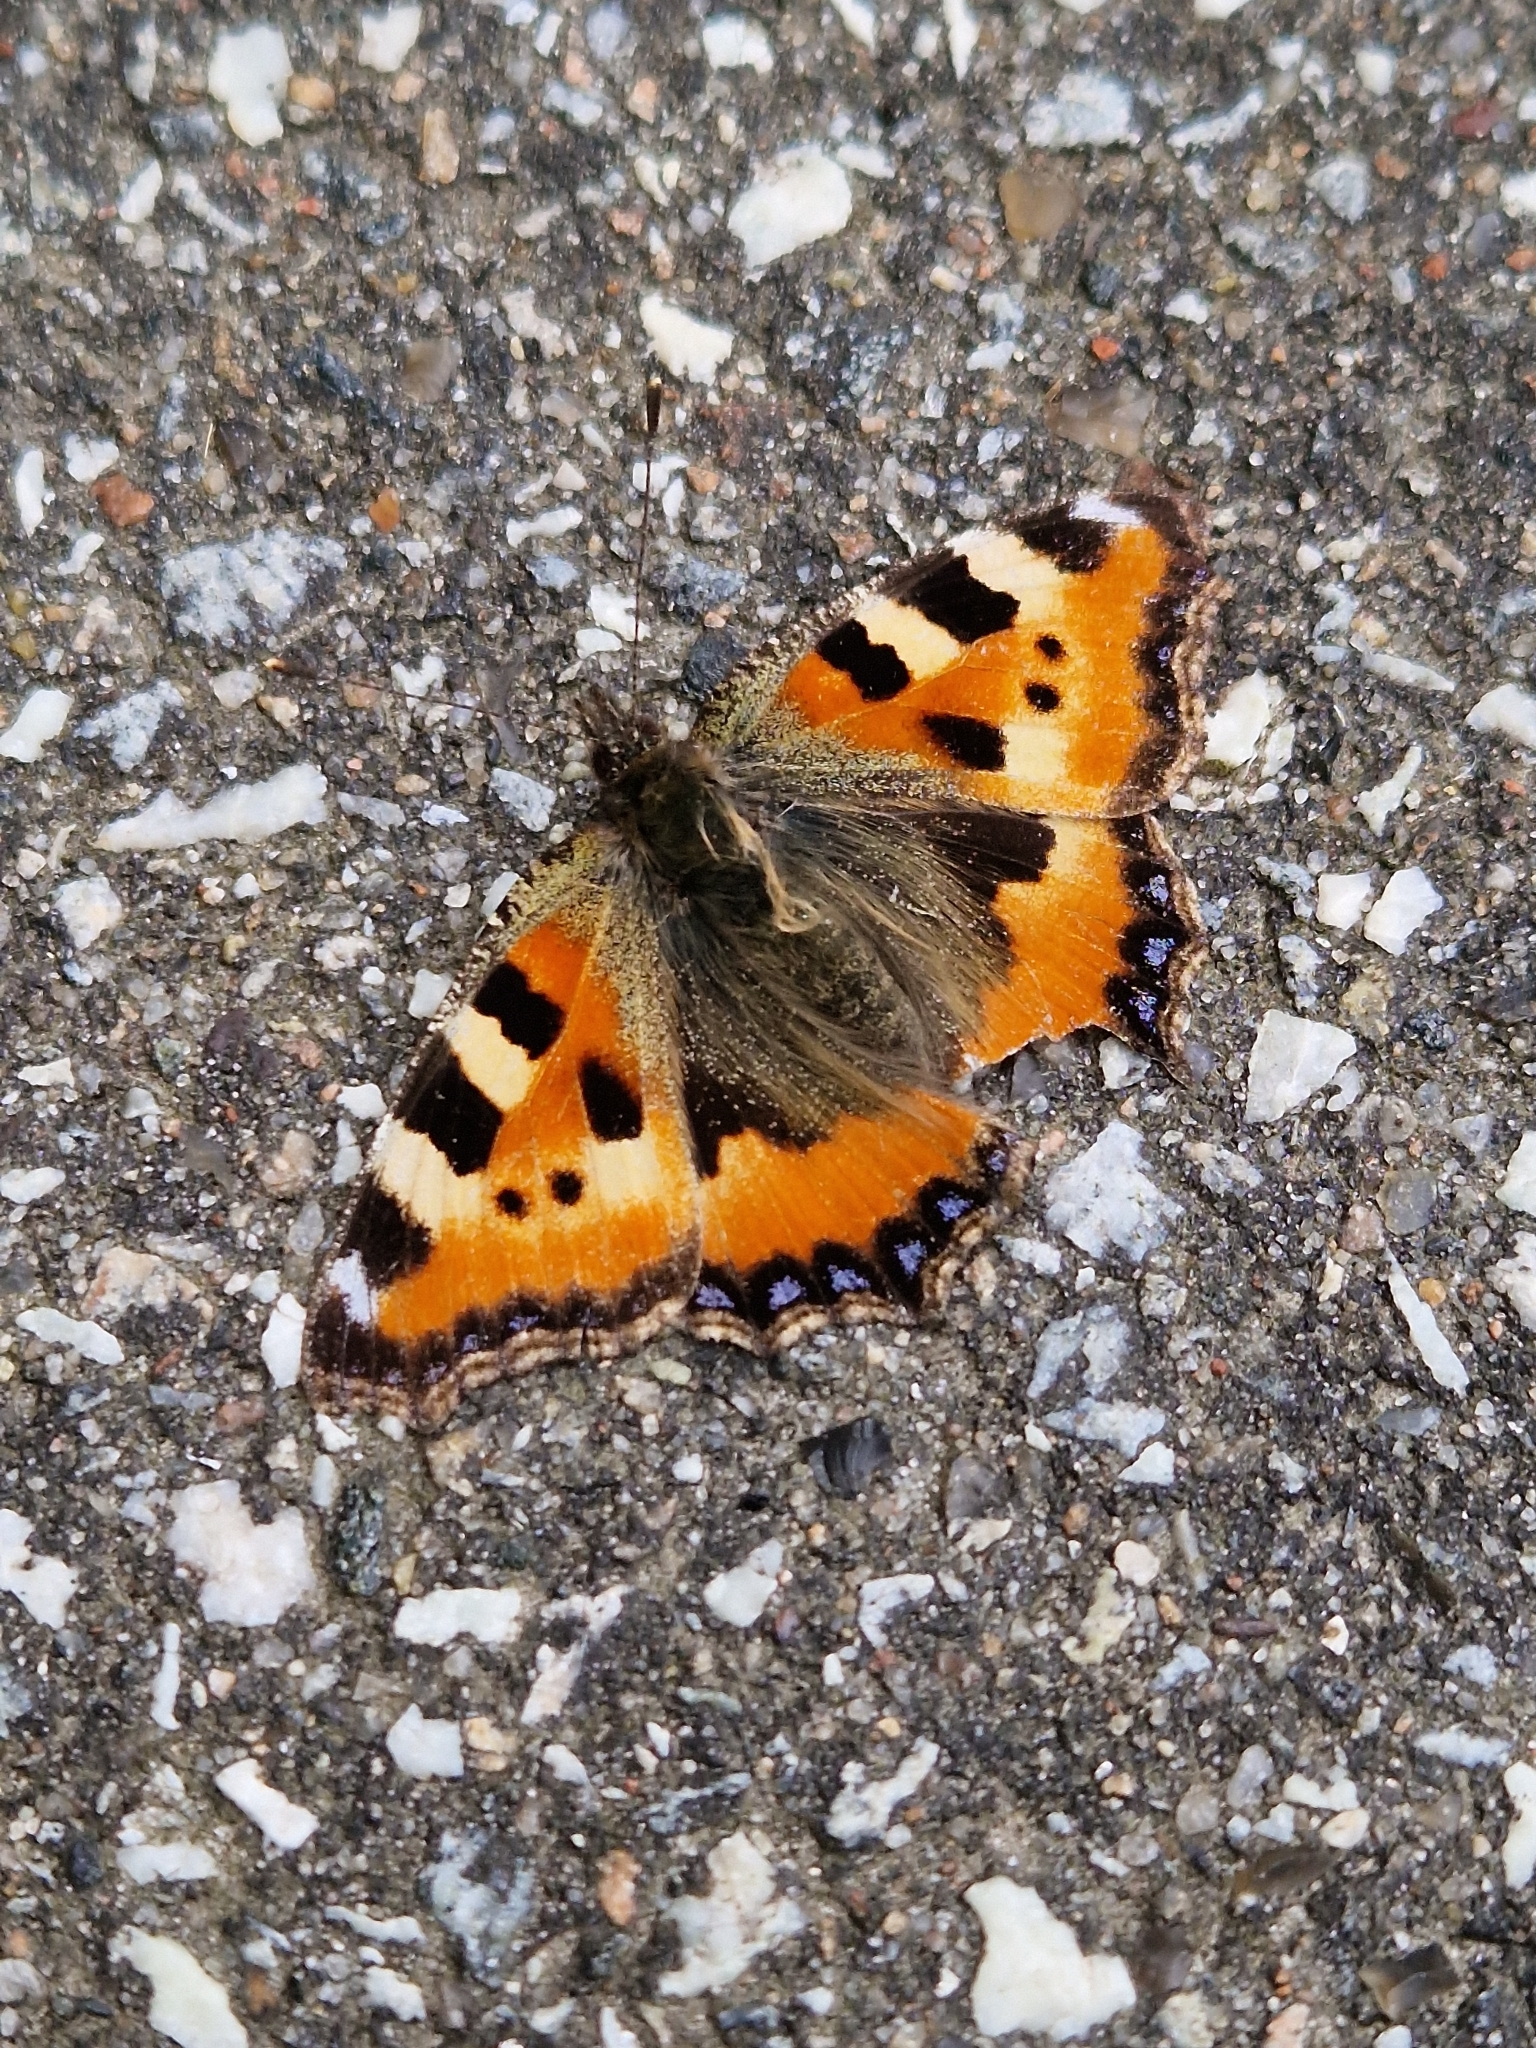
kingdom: Animalia
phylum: Arthropoda
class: Insecta
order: Lepidoptera
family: Nymphalidae
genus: Aglais
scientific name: Aglais urticae
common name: Small tortoiseshell
